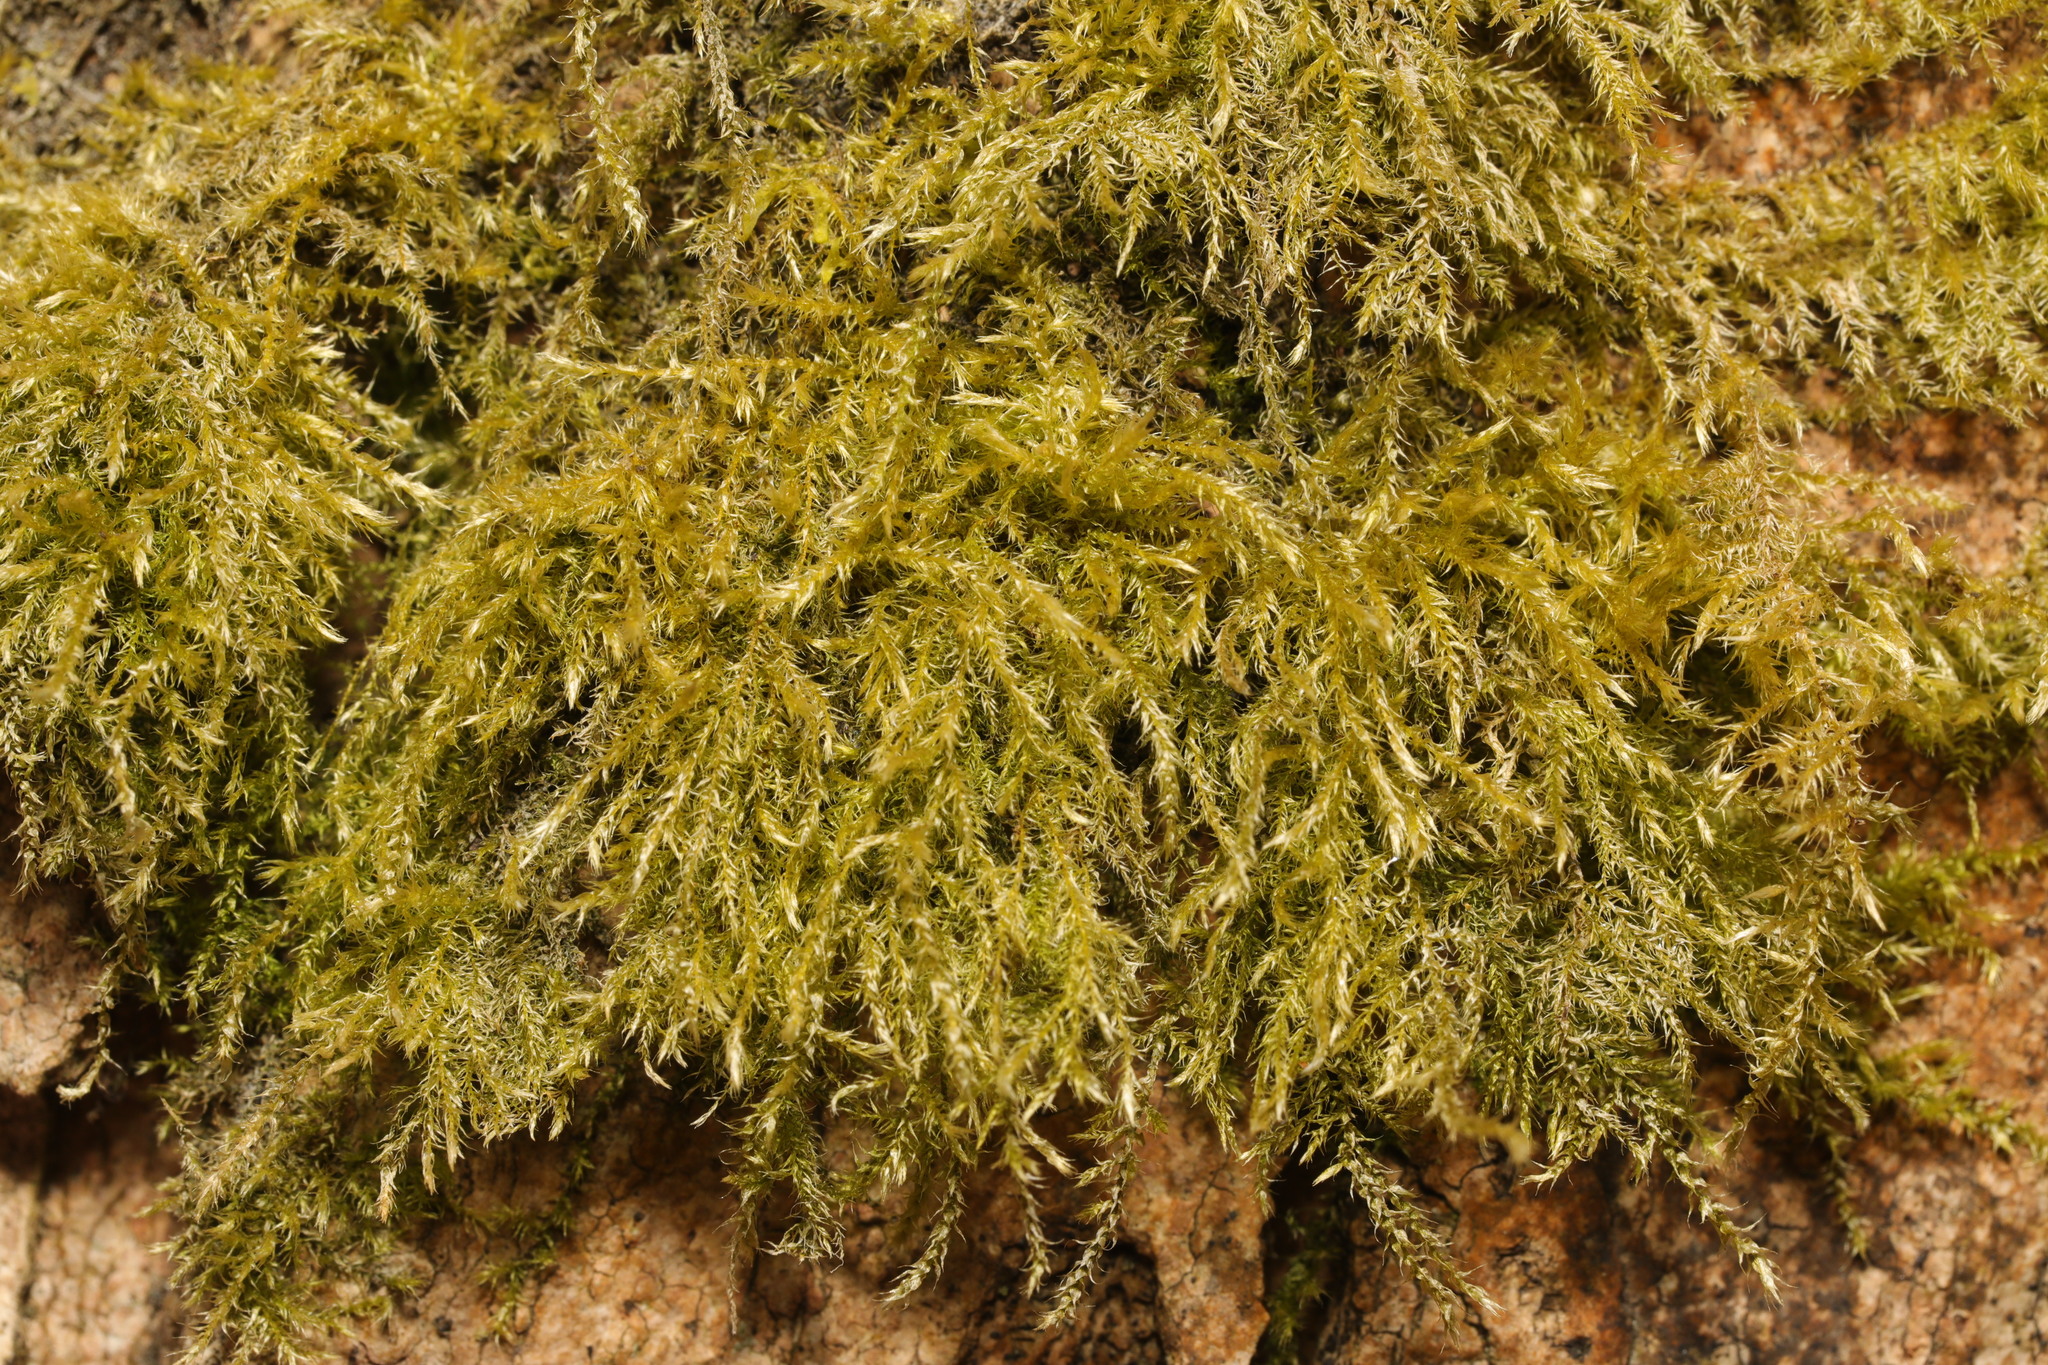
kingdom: Plantae
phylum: Bryophyta
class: Bryopsida
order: Hypnales
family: Brachytheciaceae
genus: Kindbergia
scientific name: Kindbergia praelonga
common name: Slender beaked moss
